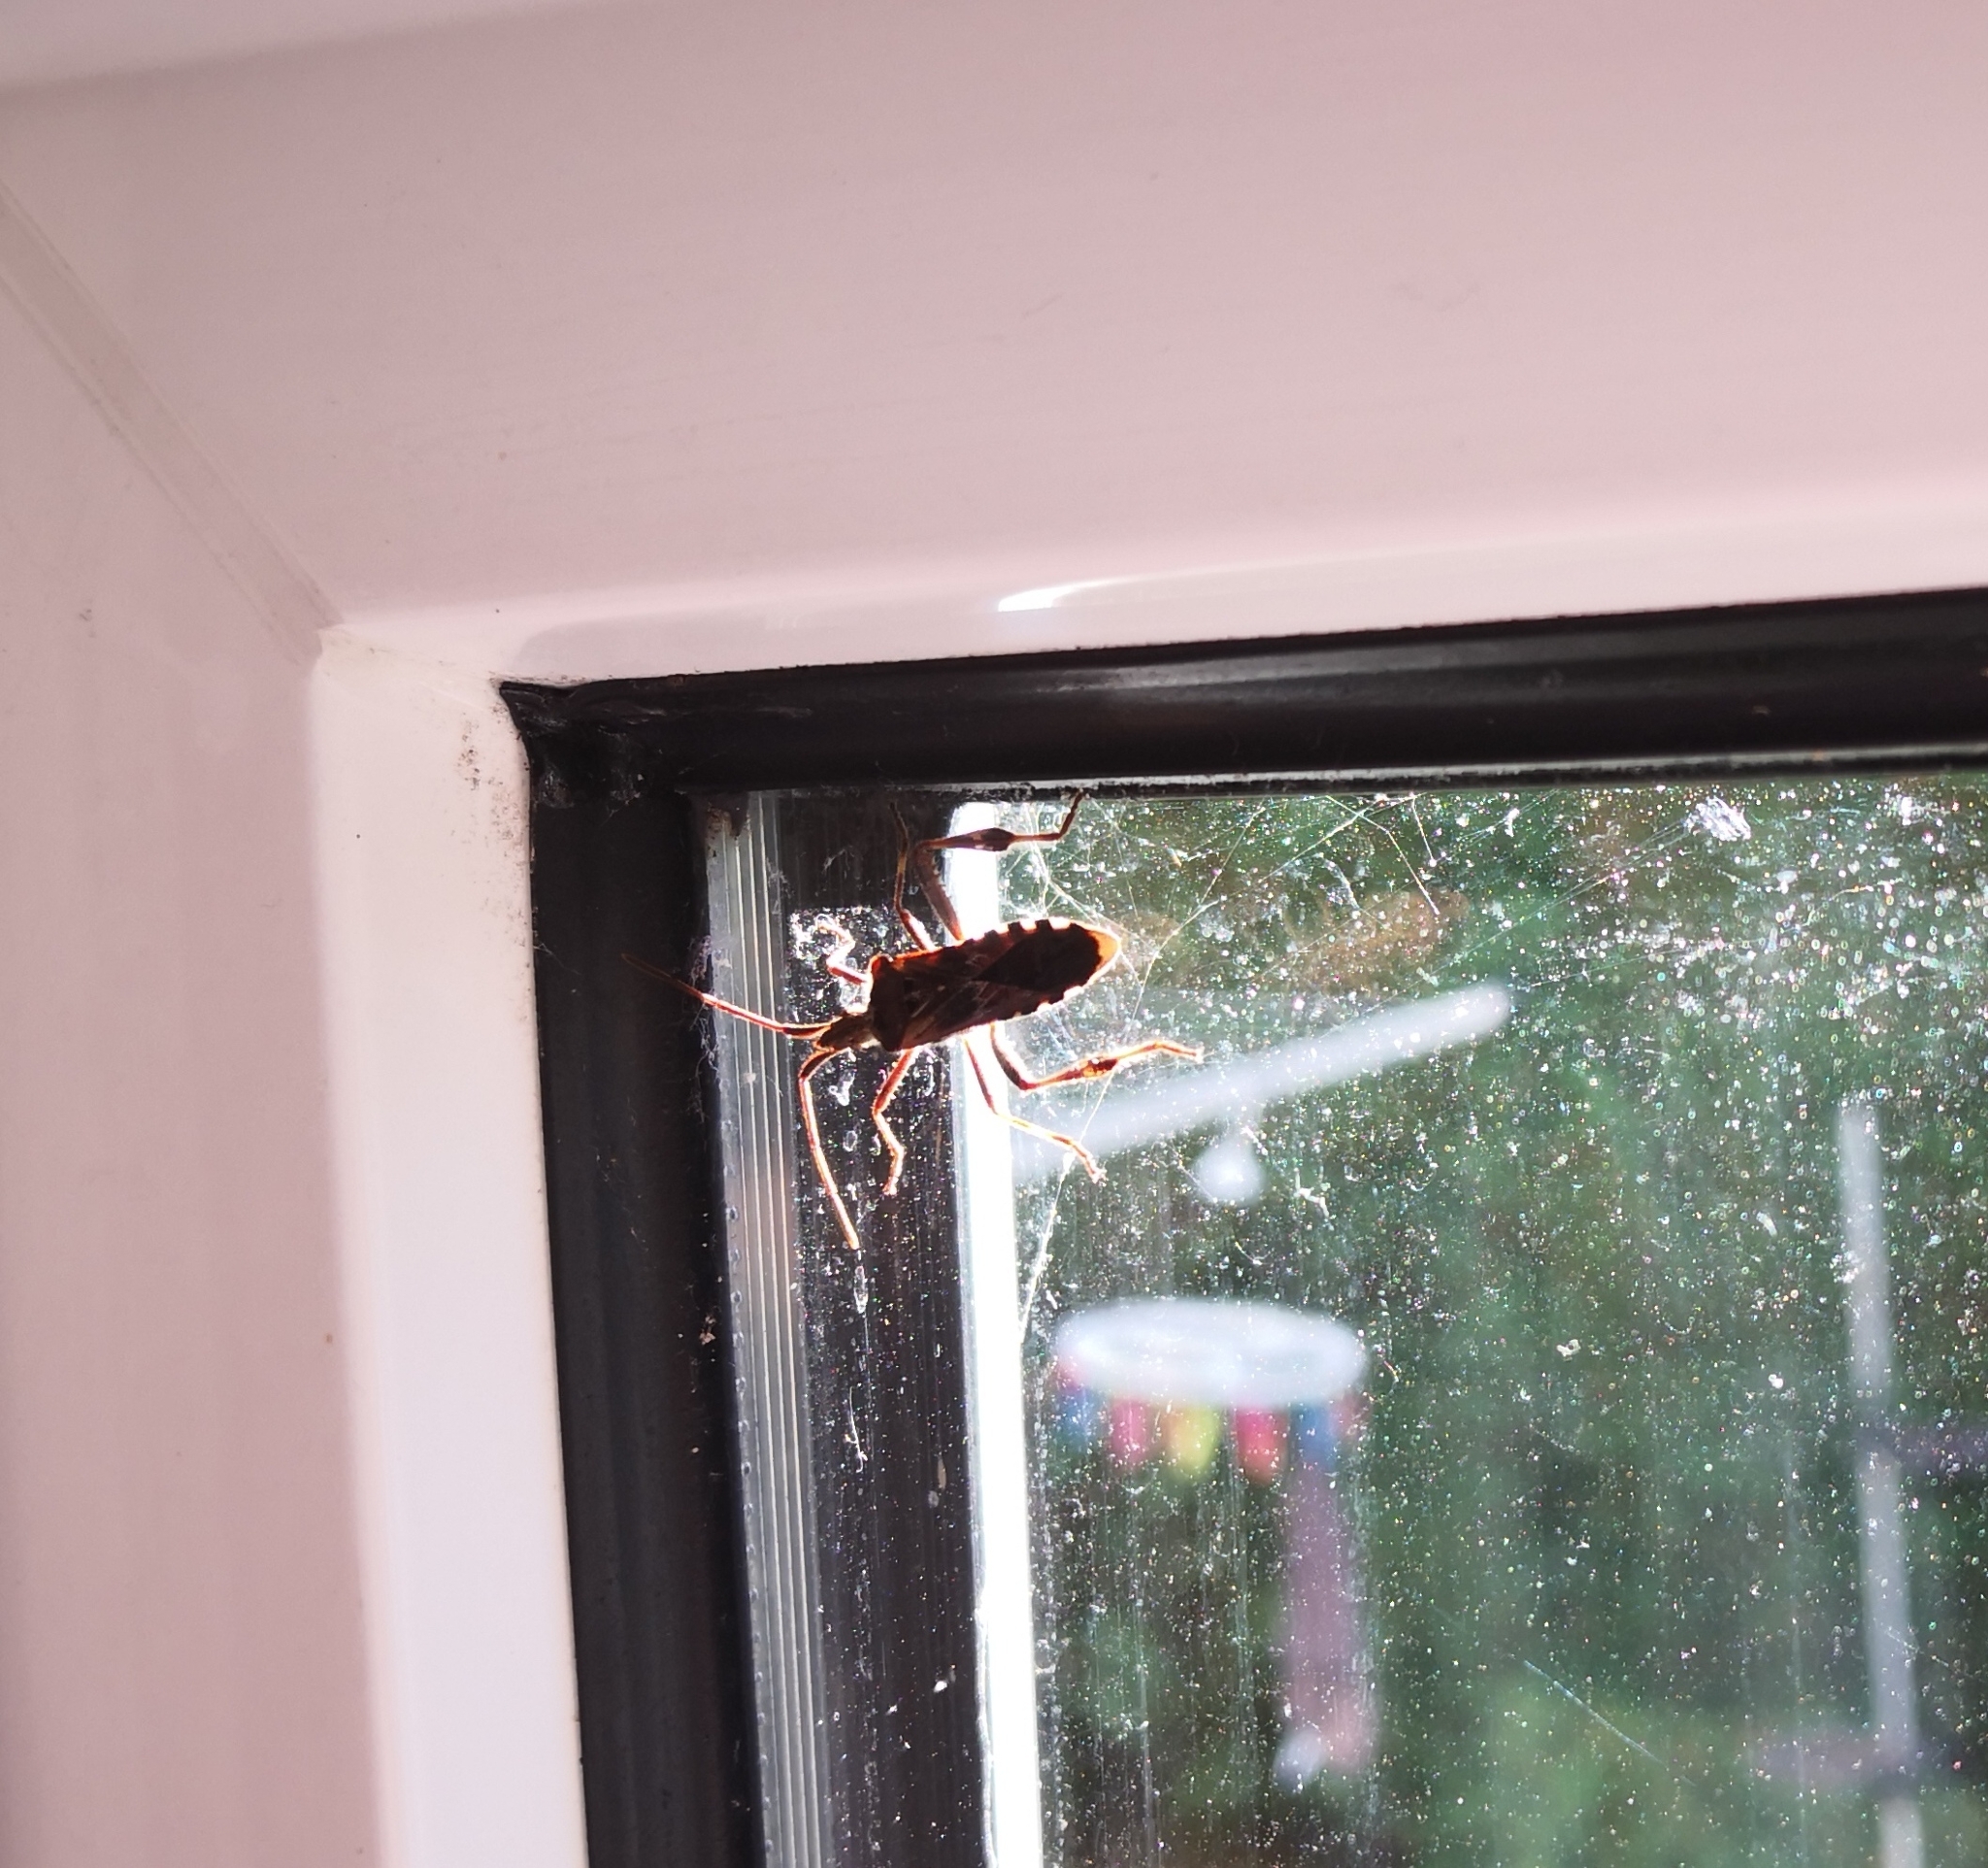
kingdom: Animalia
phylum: Arthropoda
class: Insecta
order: Hemiptera
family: Coreidae
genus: Leptoglossus
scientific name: Leptoglossus occidentalis
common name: Western conifer-seed bug
